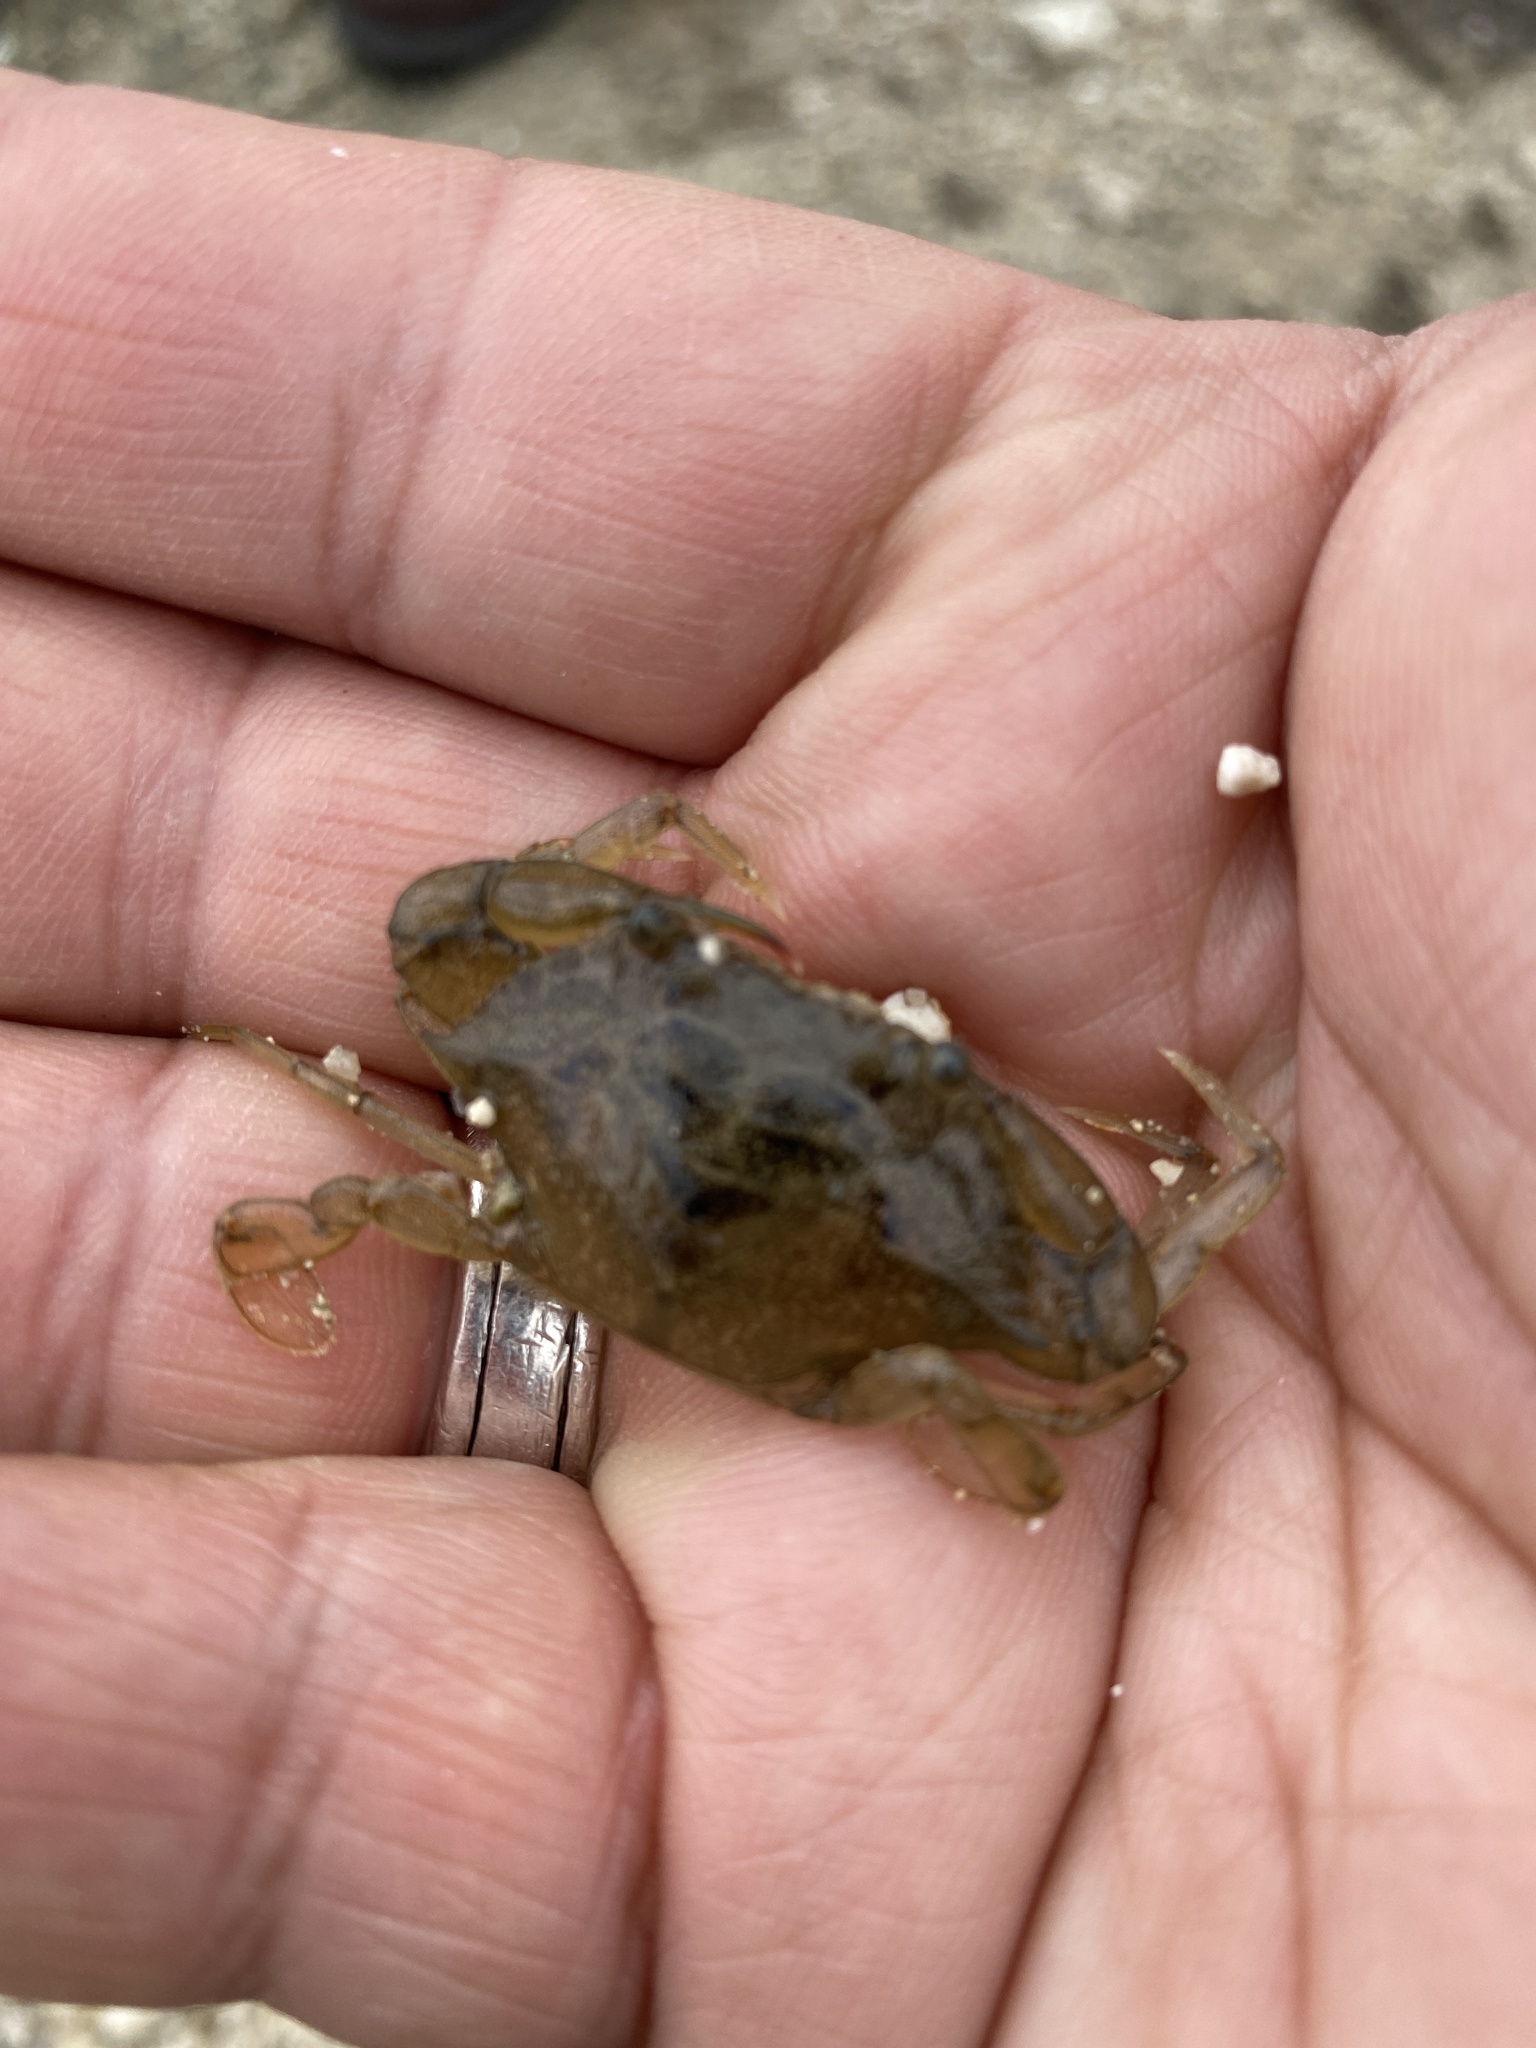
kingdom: Animalia
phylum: Arthropoda
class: Malacostraca
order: Decapoda
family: Portunidae
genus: Callinectes
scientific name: Callinectes sapidus
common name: Blue crab
